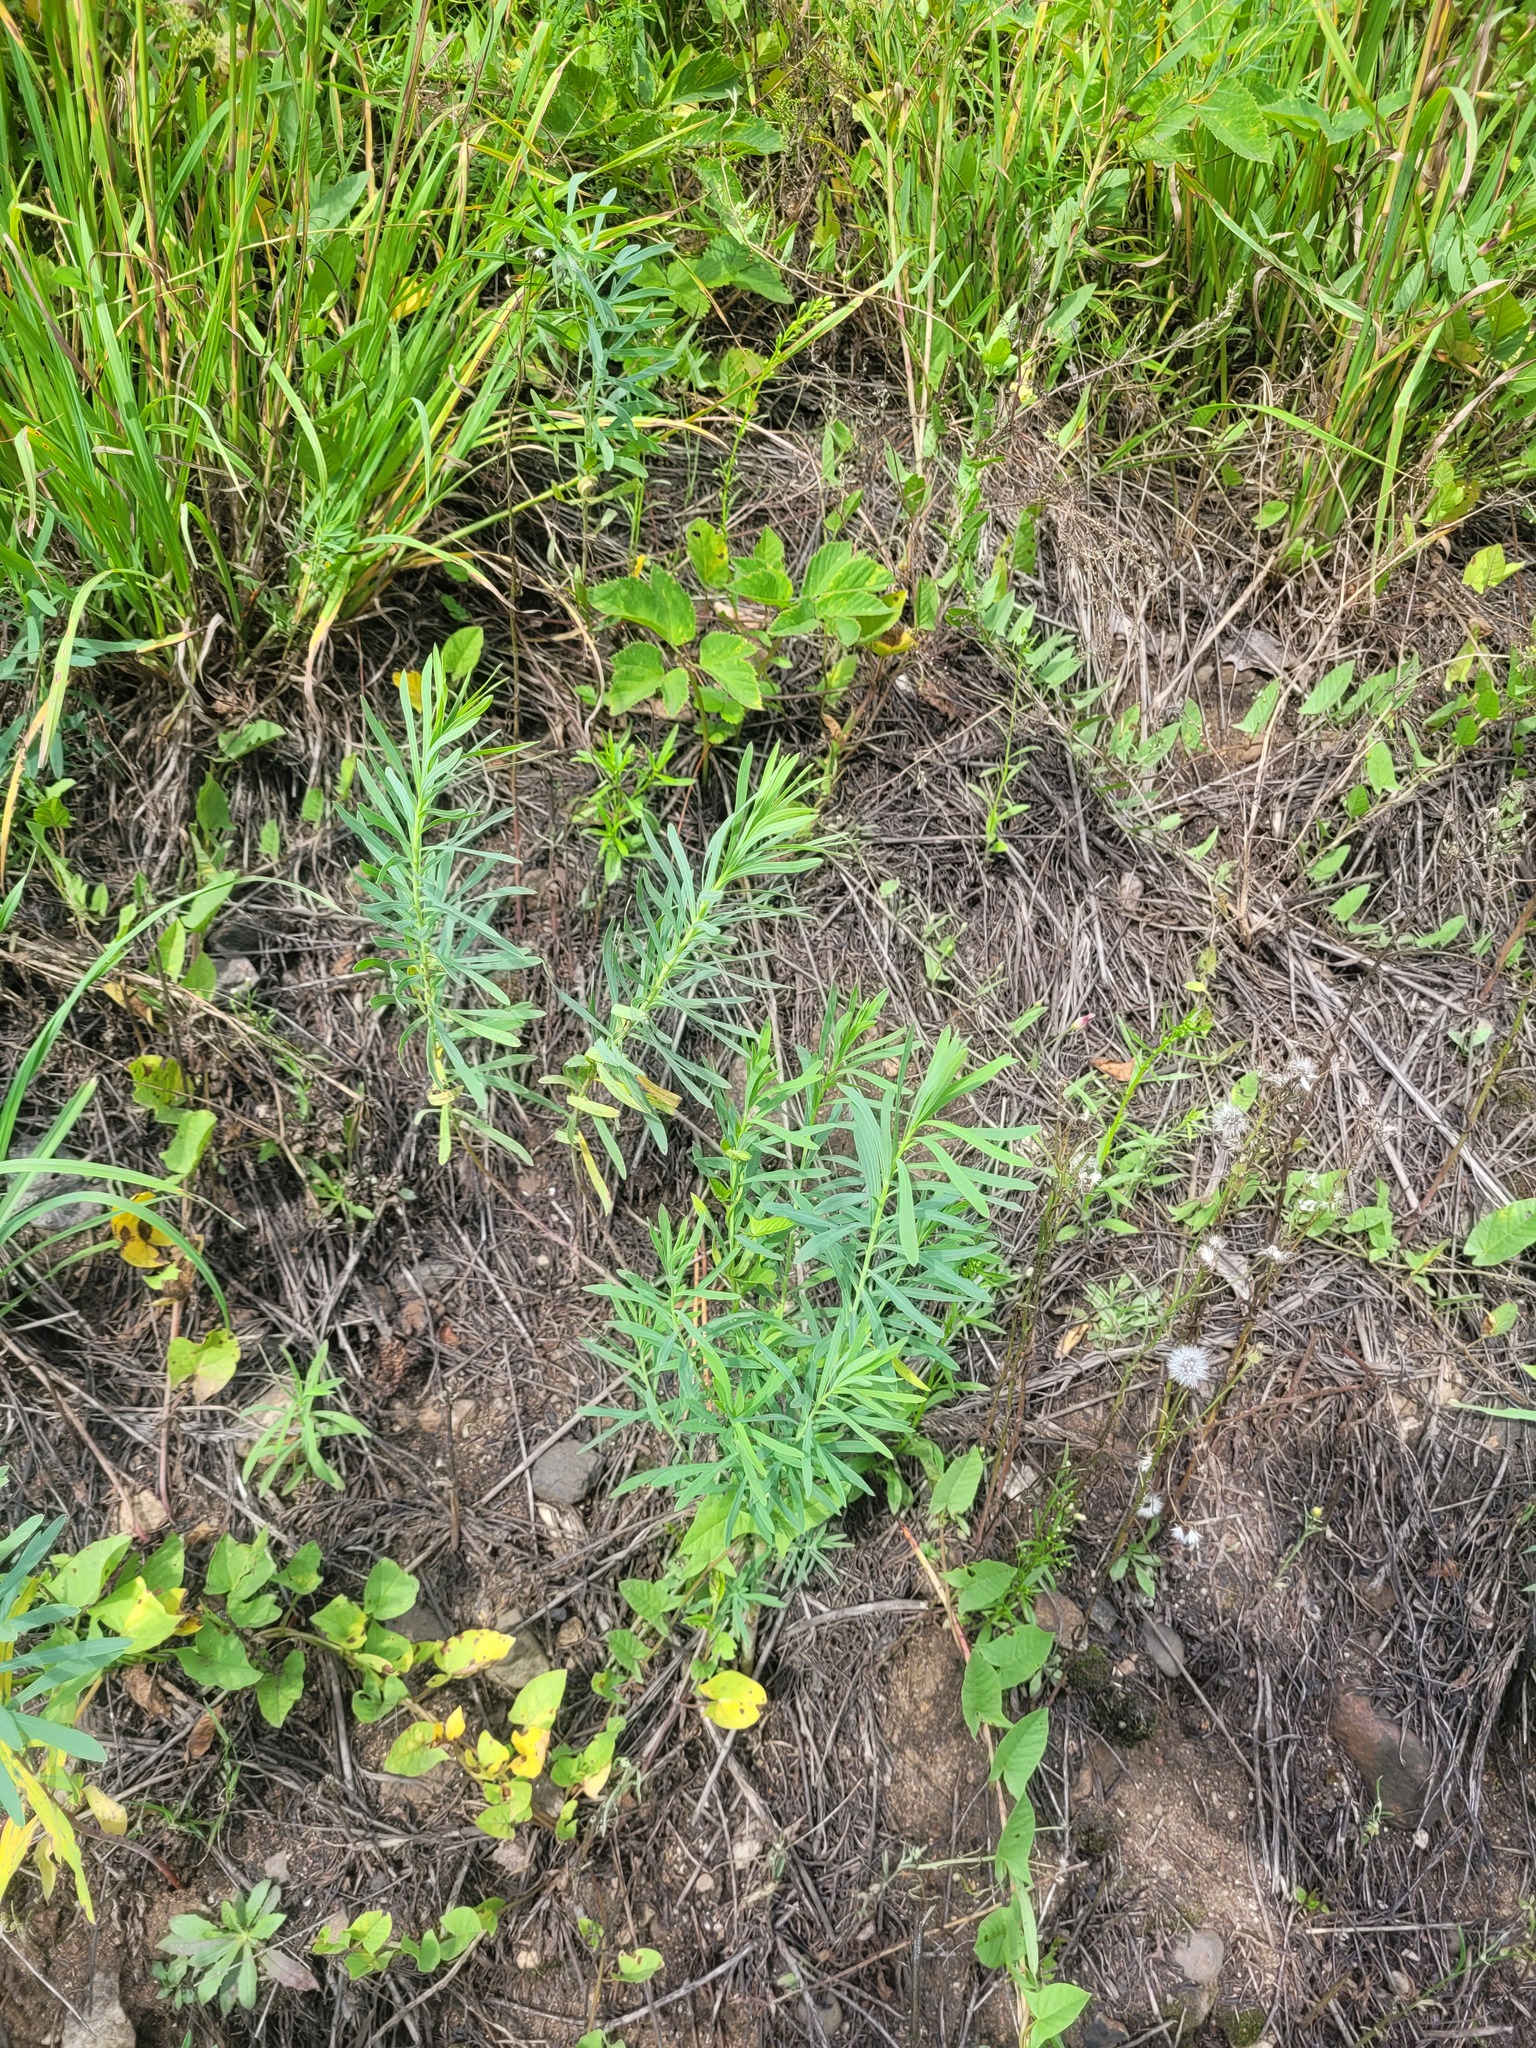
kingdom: Plantae
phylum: Tracheophyta
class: Magnoliopsida
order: Malpighiales
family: Euphorbiaceae
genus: Euphorbia
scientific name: Euphorbia virgata
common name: Leafy spurge
